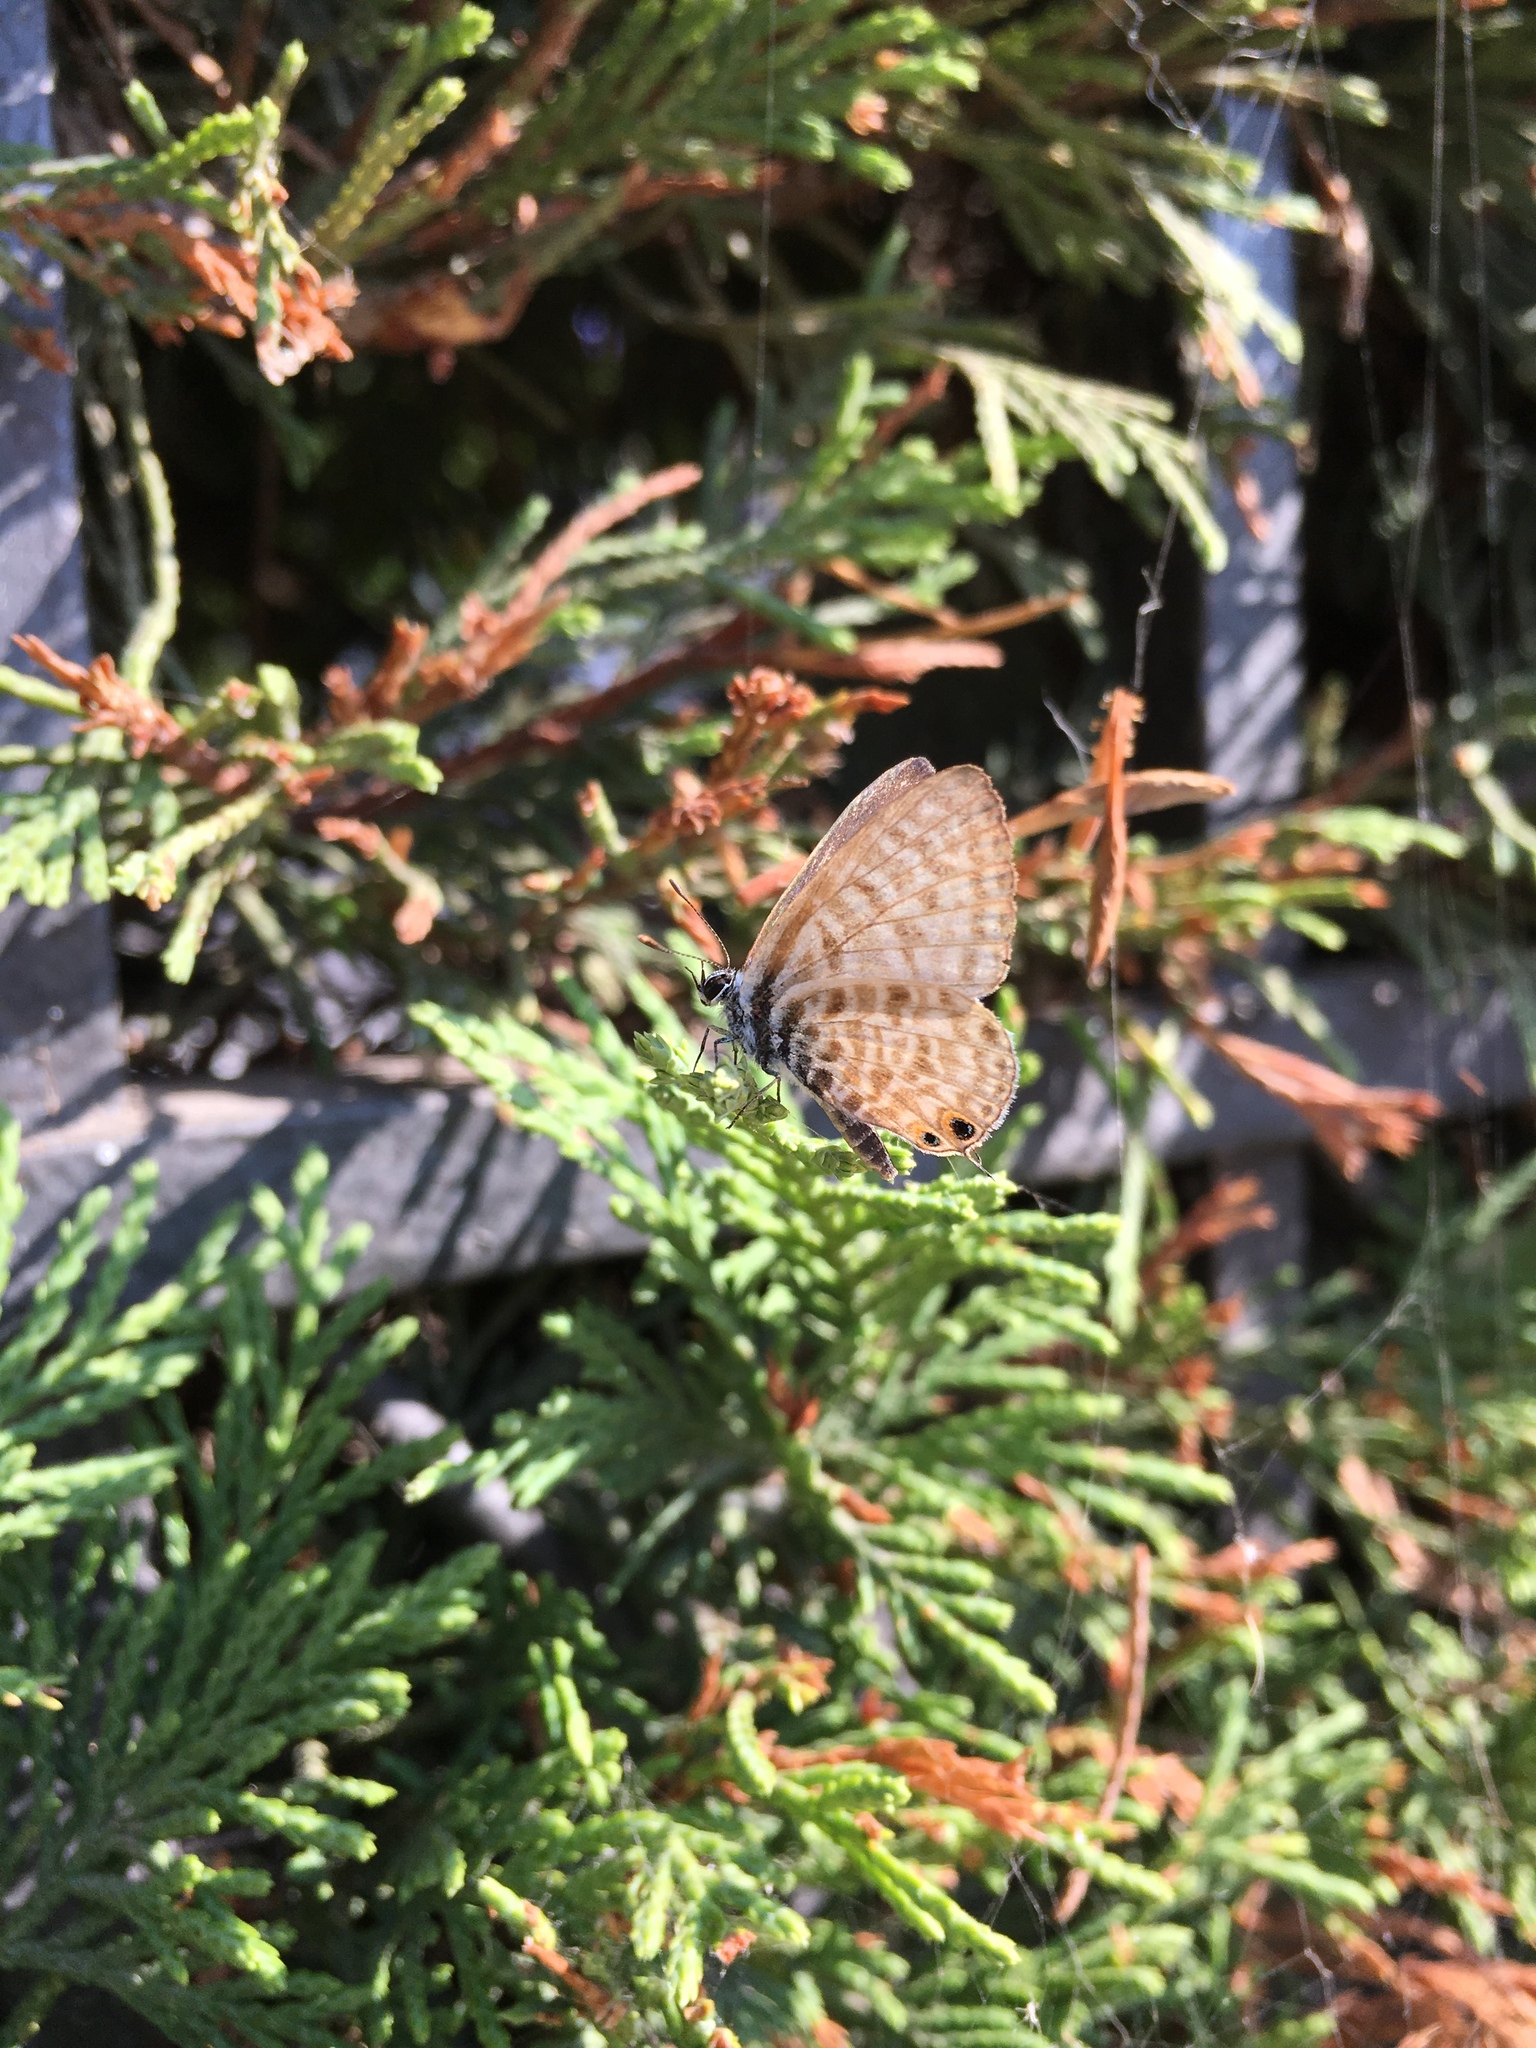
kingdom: Animalia
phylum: Arthropoda
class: Insecta
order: Lepidoptera
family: Lycaenidae
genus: Leptotes
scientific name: Leptotes pirithous
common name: Lang's short-tailed blue
